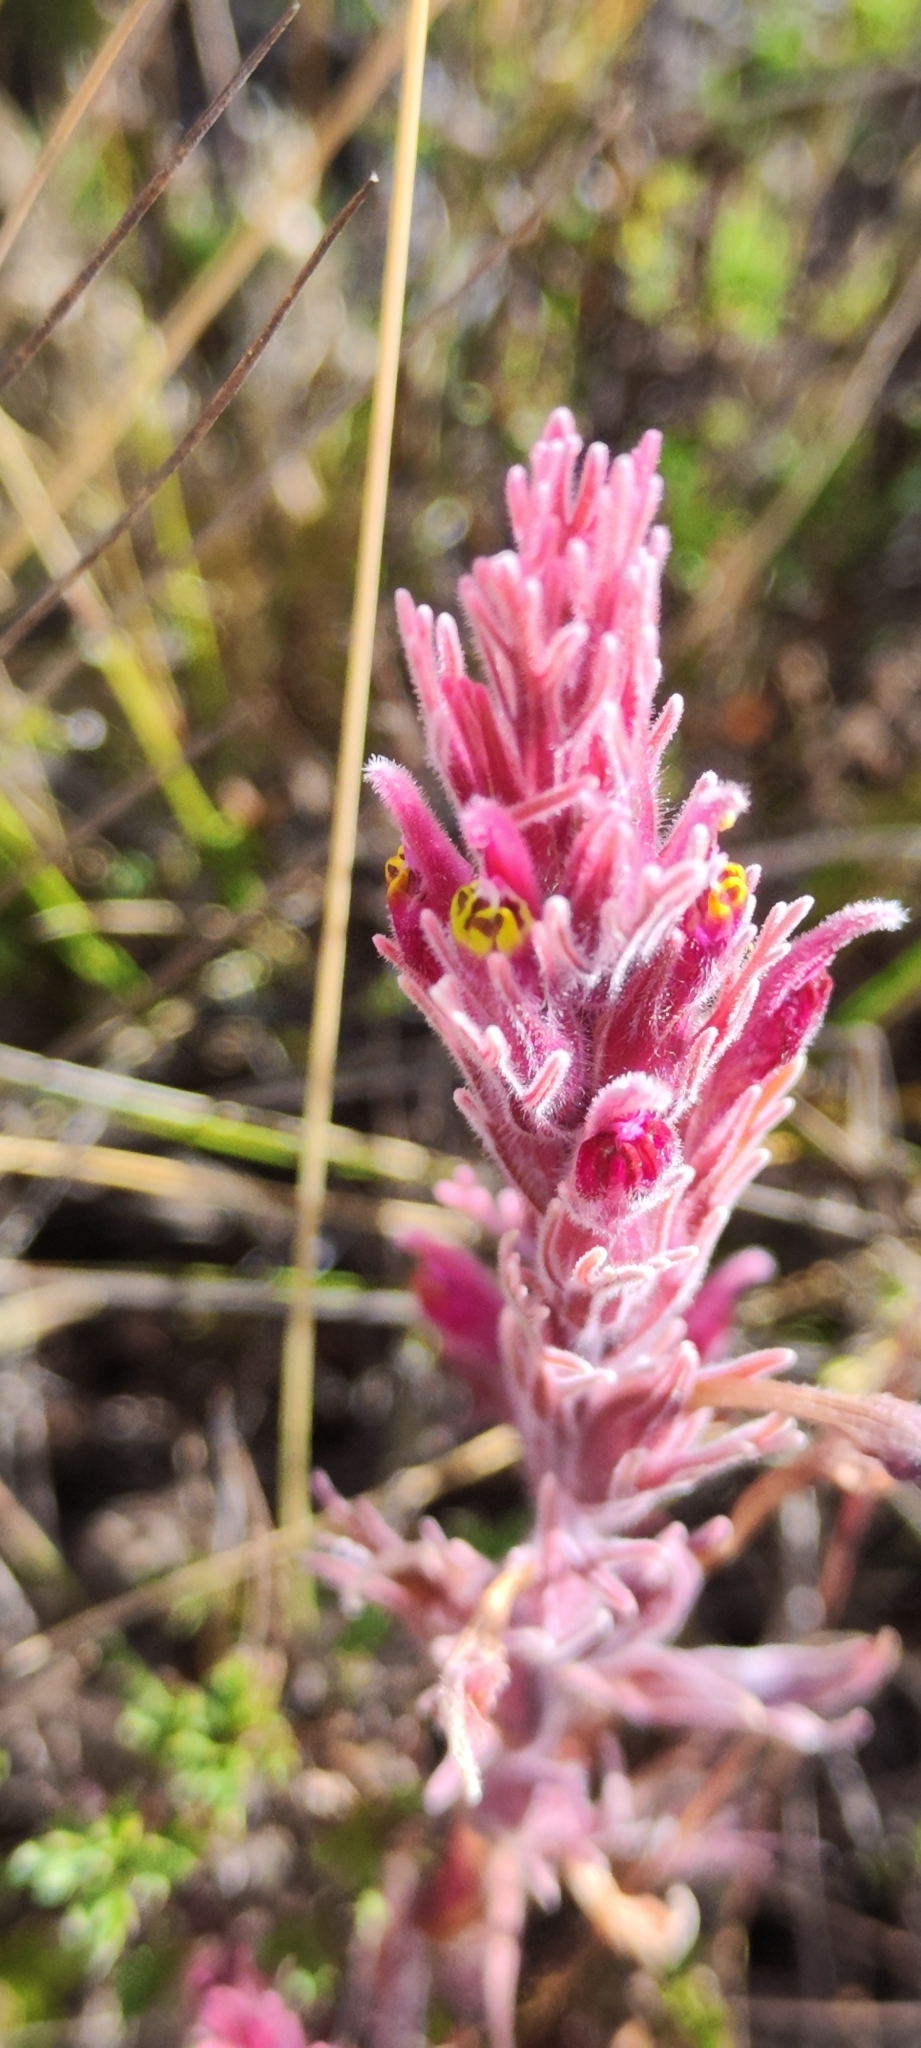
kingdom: Plantae
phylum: Tracheophyta
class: Magnoliopsida
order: Lamiales
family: Orobanchaceae
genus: Castilleja
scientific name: Castilleja vadosa
